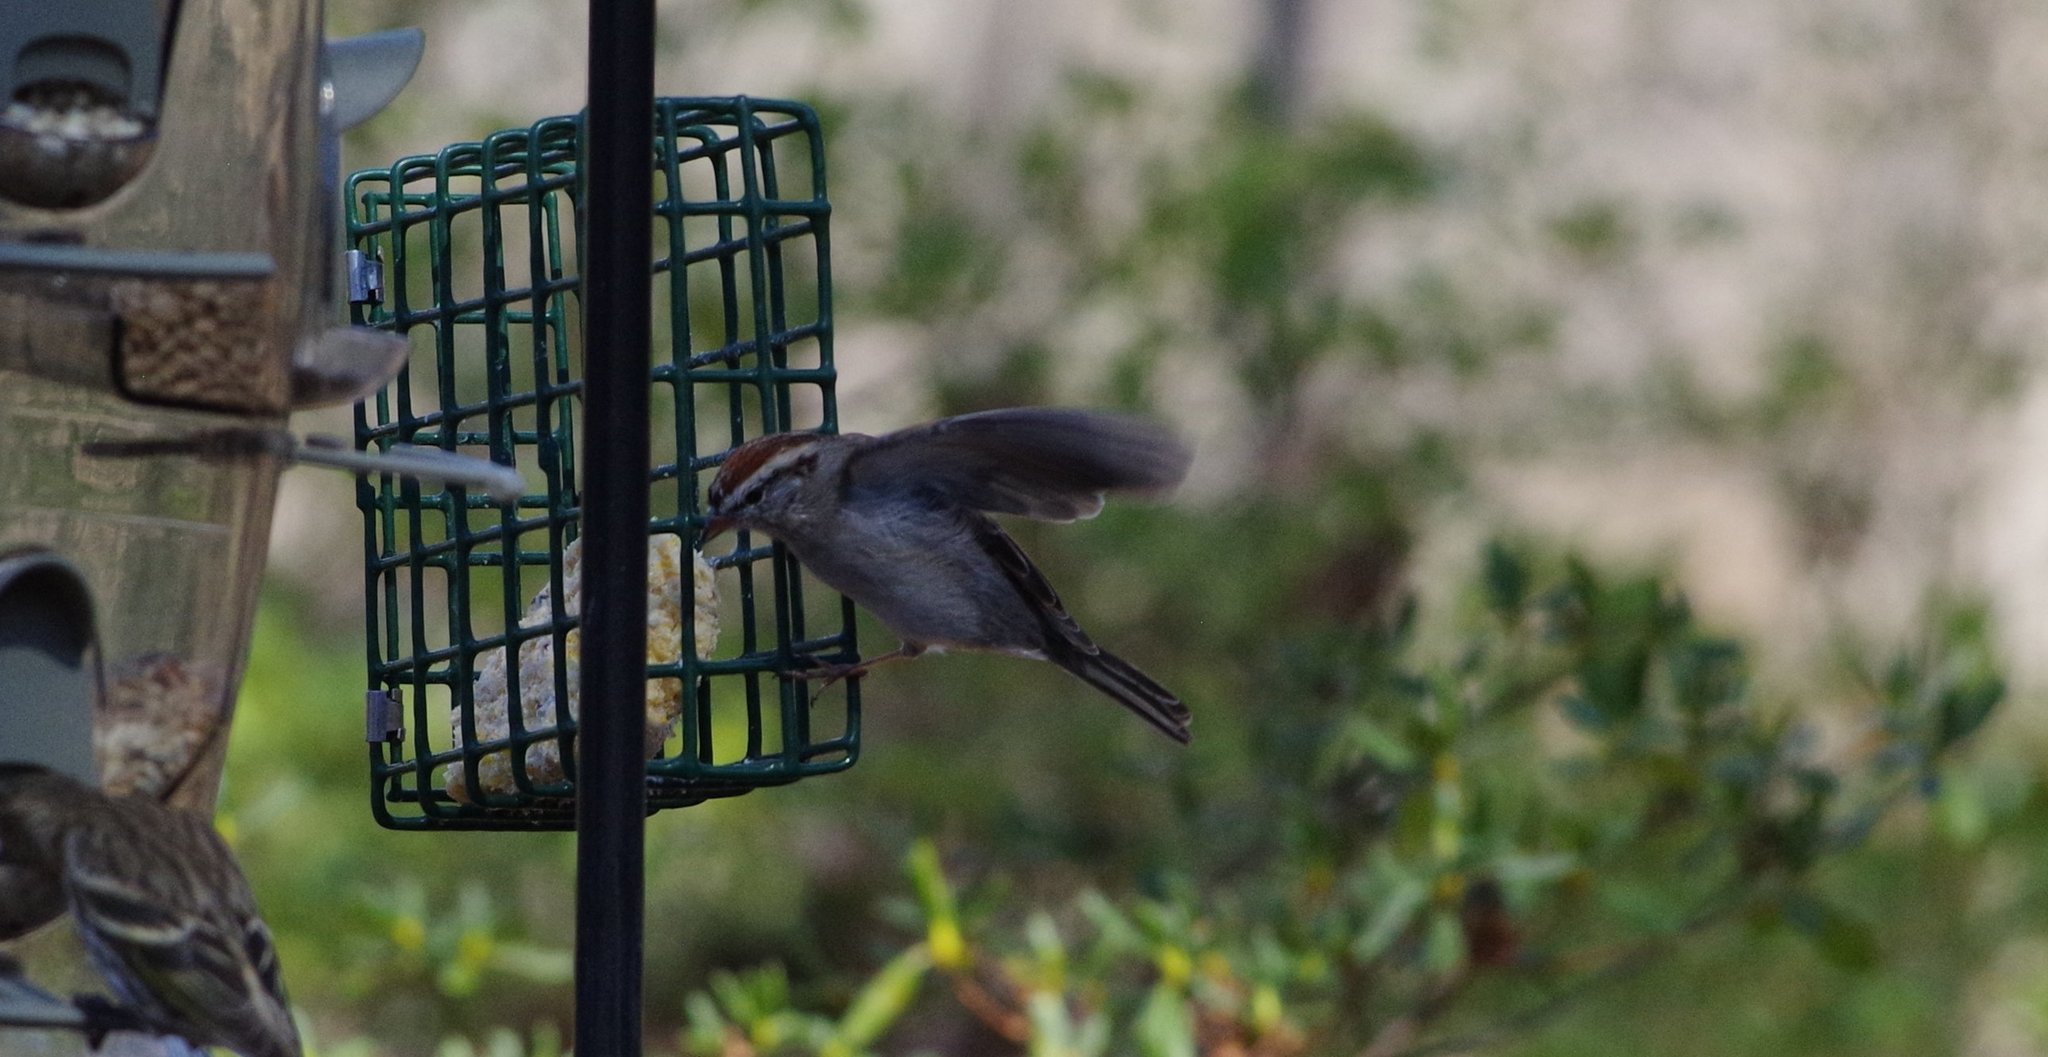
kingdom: Animalia
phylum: Chordata
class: Aves
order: Passeriformes
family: Passerellidae
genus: Spizella
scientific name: Spizella passerina
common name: Chipping sparrow
